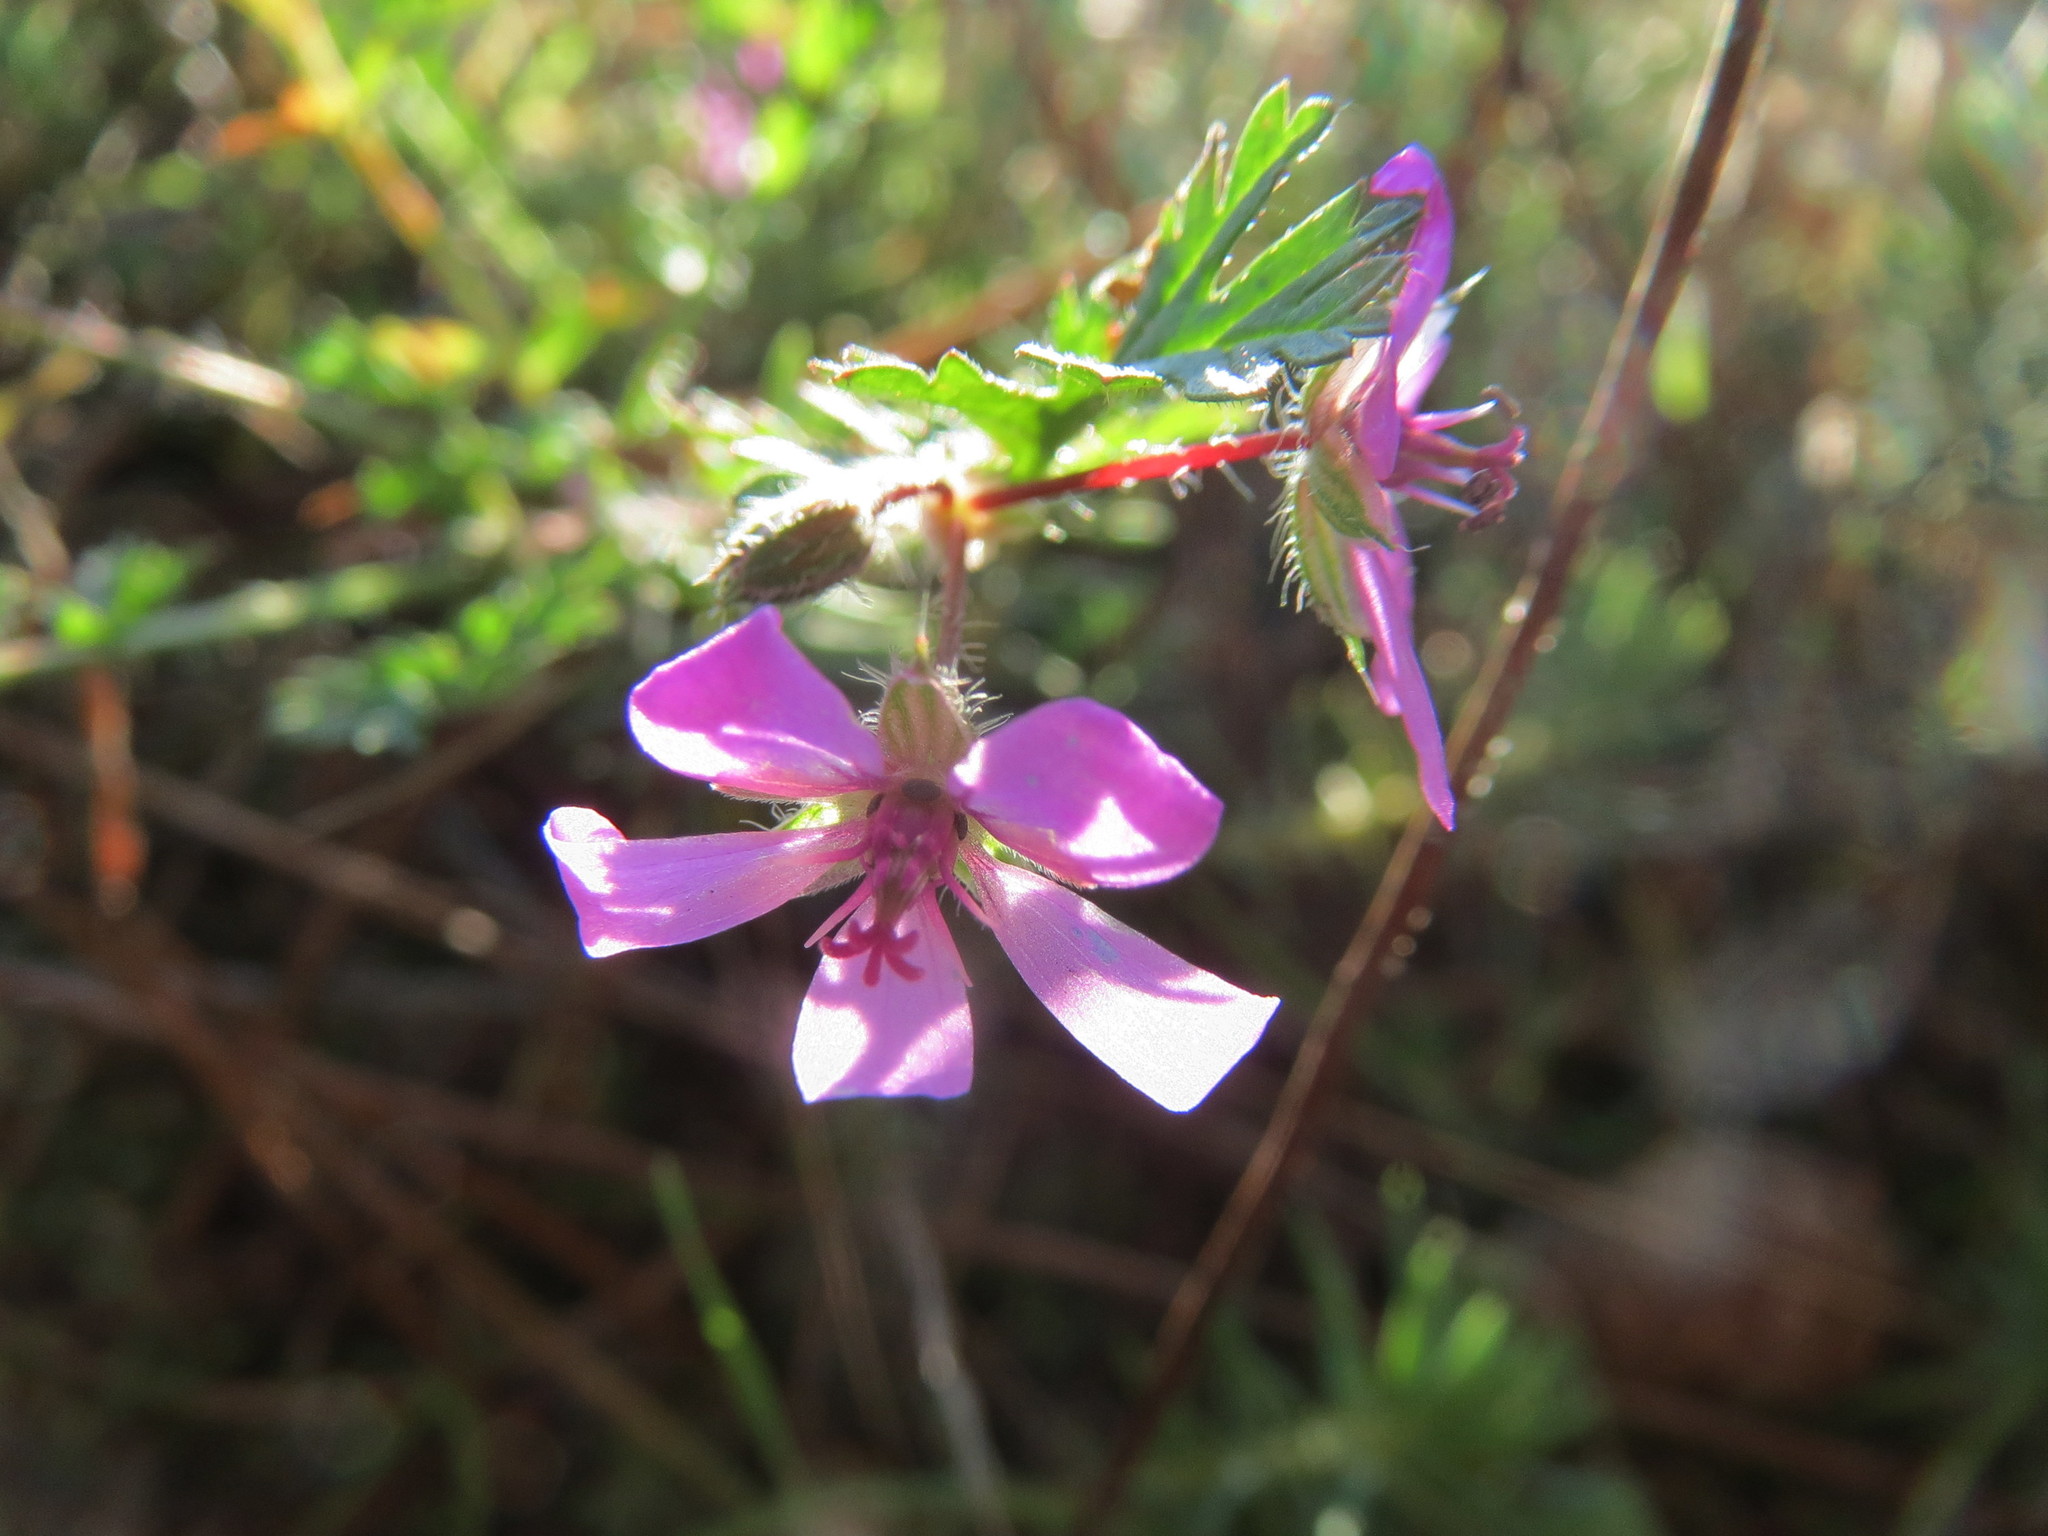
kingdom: Plantae
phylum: Tracheophyta
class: Magnoliopsida
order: Geraniales
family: Geraniaceae
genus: Erodium
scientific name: Erodium cicutarium
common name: Common stork's-bill
